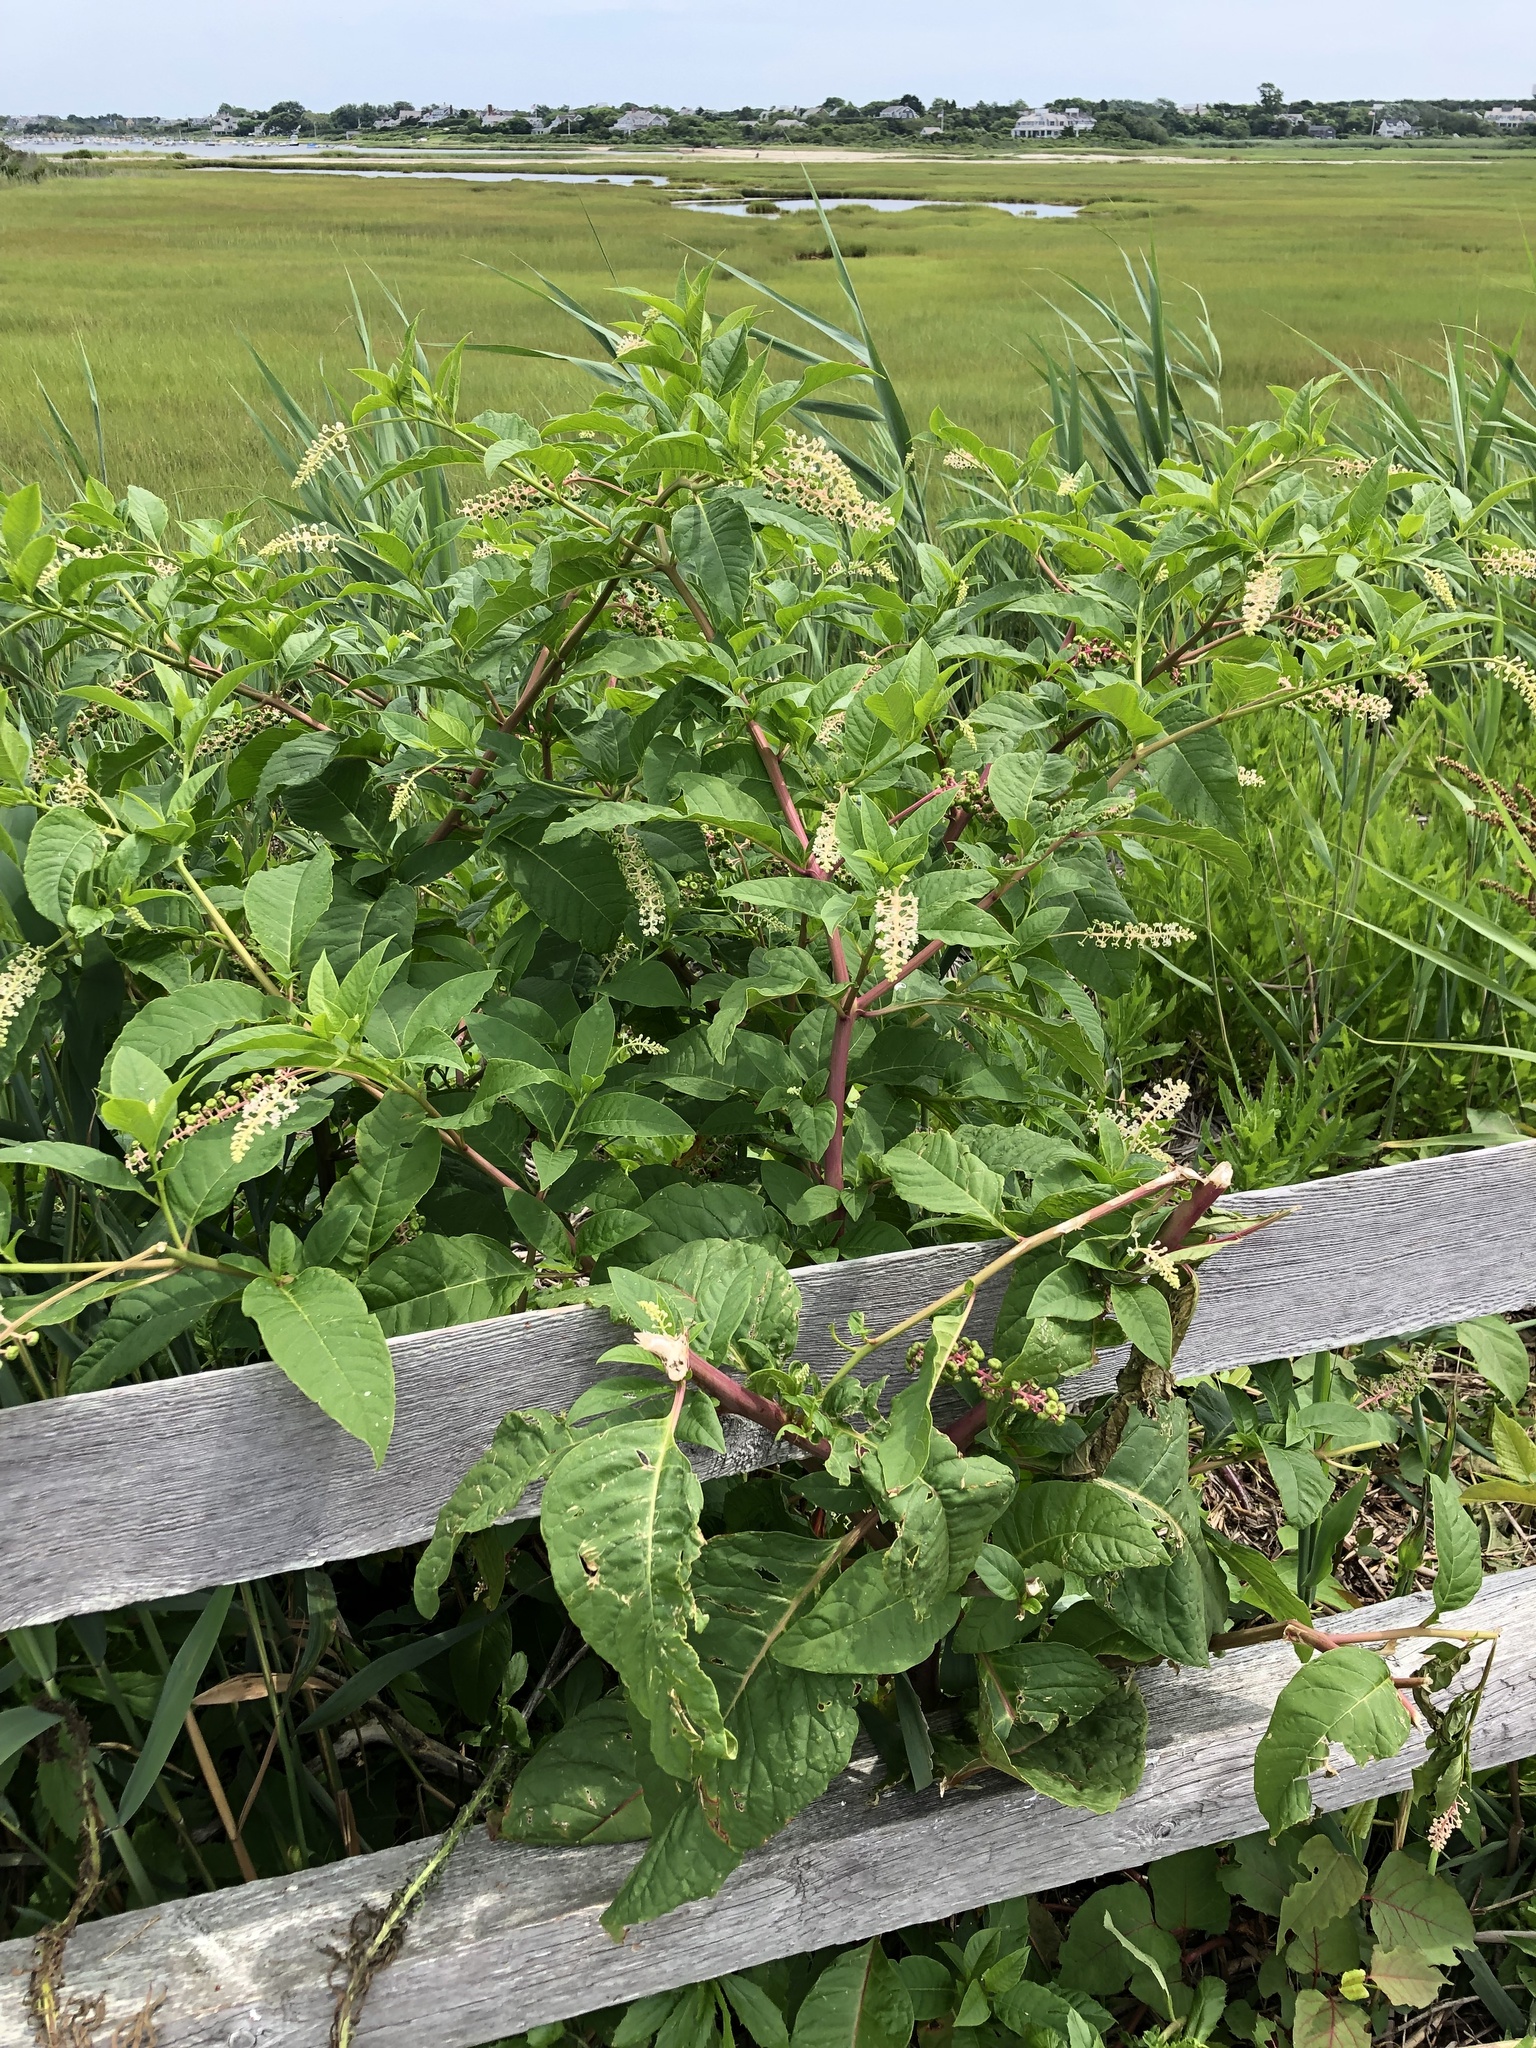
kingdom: Plantae
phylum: Tracheophyta
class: Magnoliopsida
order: Caryophyllales
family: Phytolaccaceae
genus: Phytolacca
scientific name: Phytolacca americana
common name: American pokeweed
